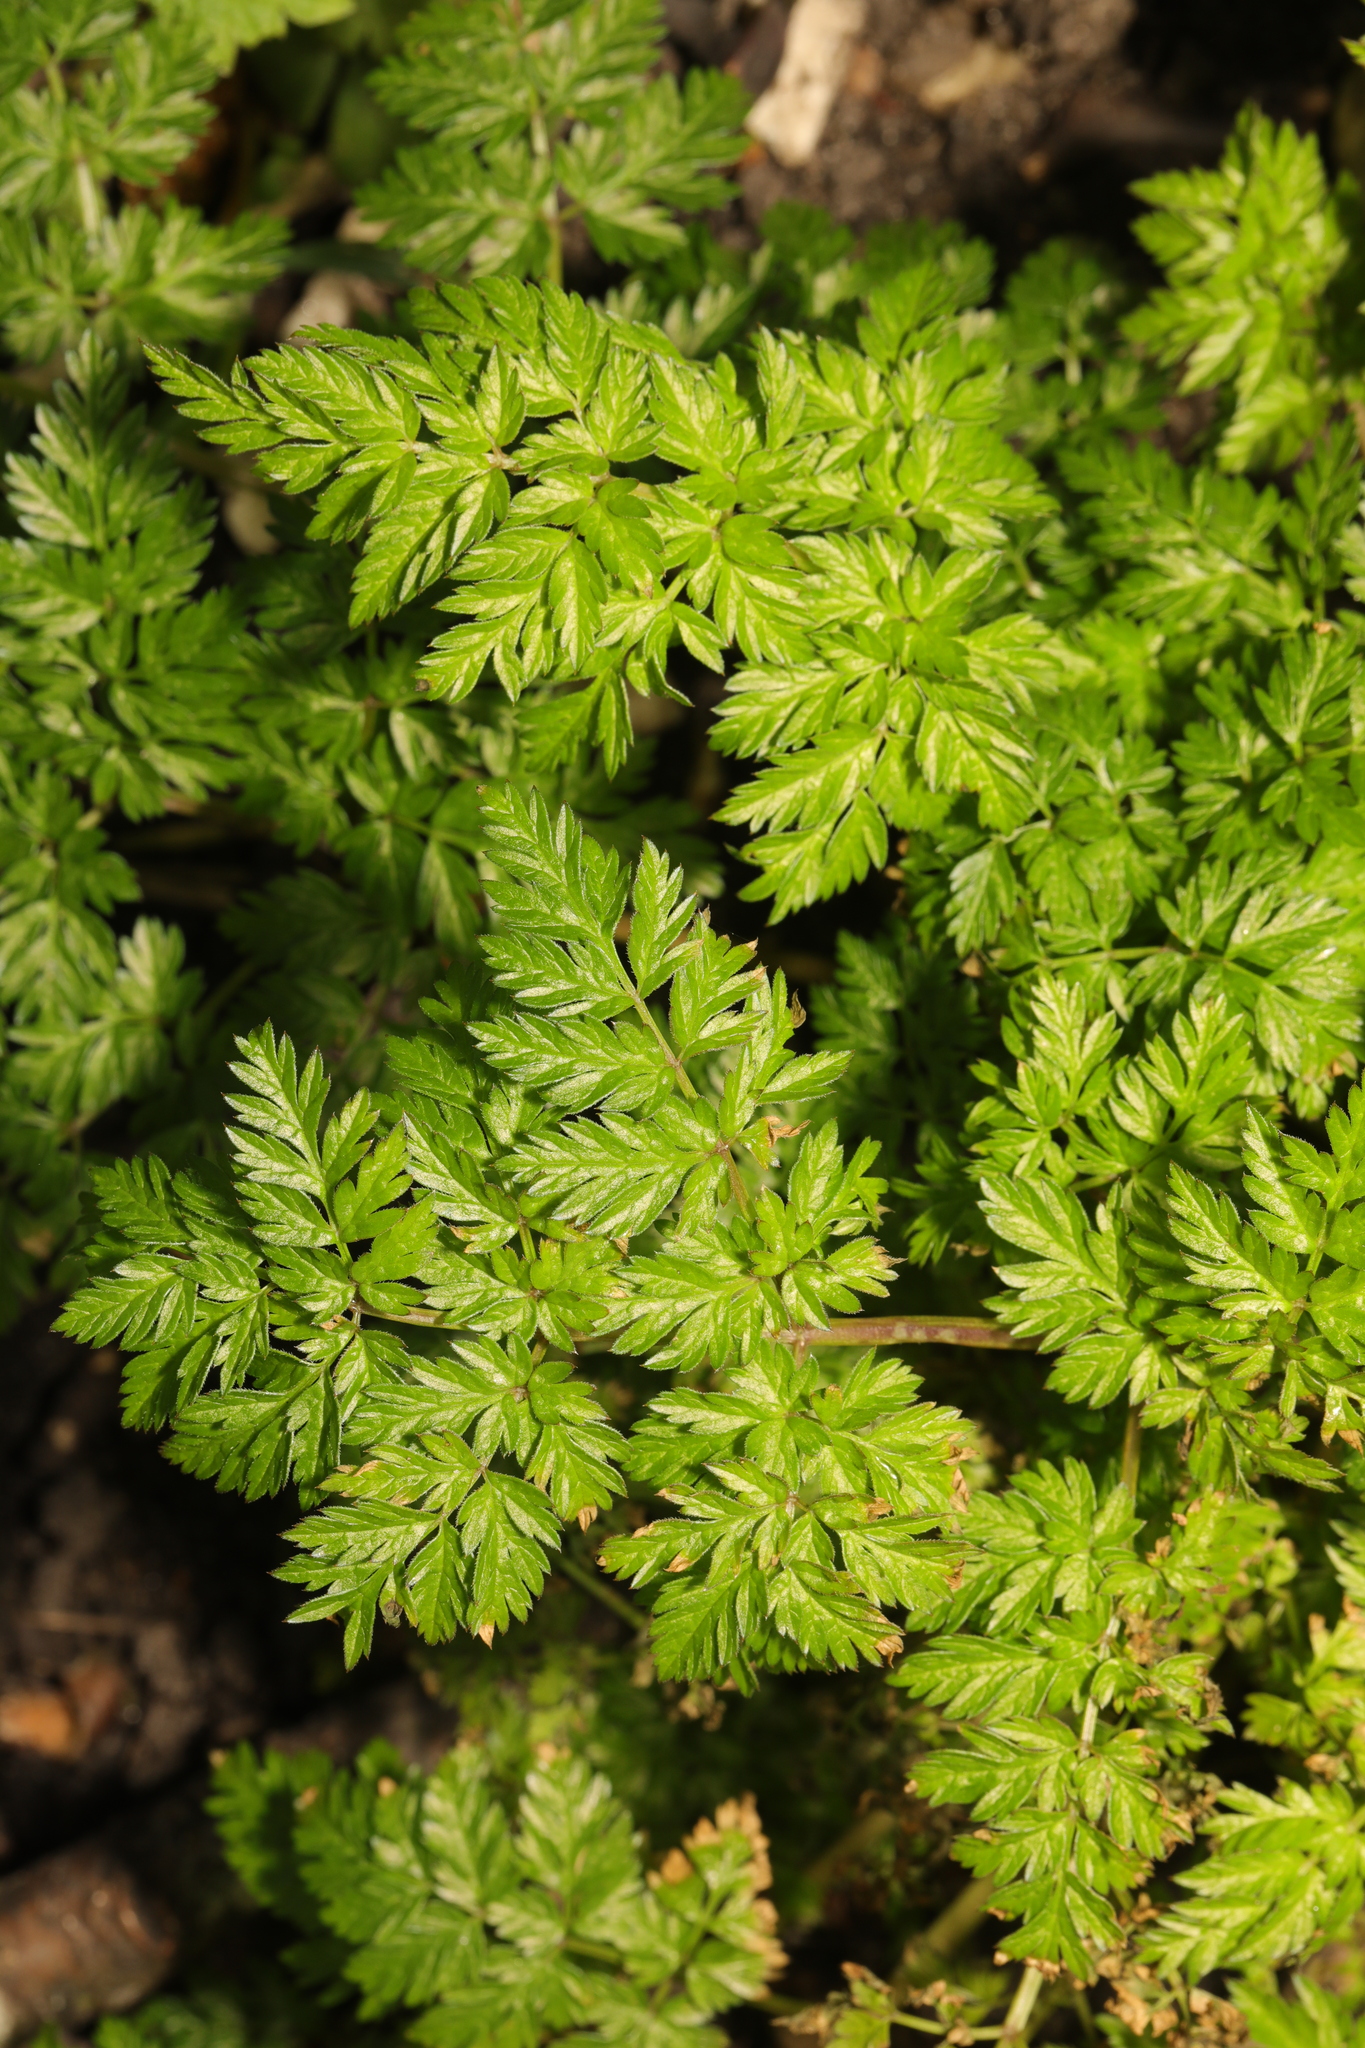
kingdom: Plantae
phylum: Tracheophyta
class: Magnoliopsida
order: Apiales
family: Apiaceae
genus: Anthriscus
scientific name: Anthriscus sylvestris
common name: Cow parsley
